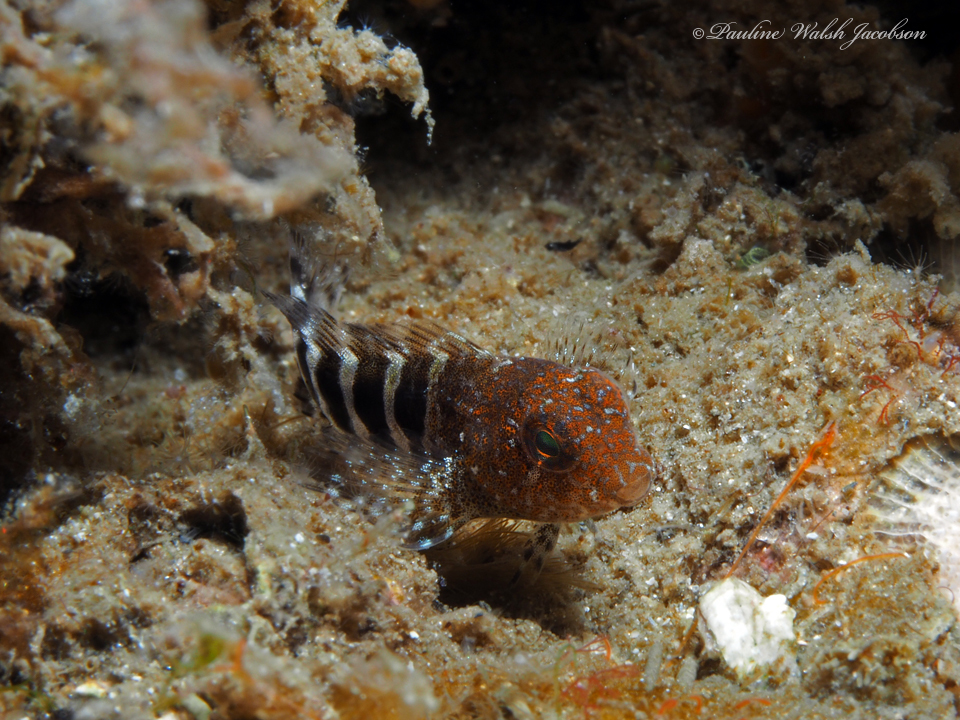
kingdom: Animalia
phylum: Chordata
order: Perciformes
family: Blenniidae
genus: Hypleurochilus
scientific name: Hypleurochilus bermudensis
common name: Barred blenny
